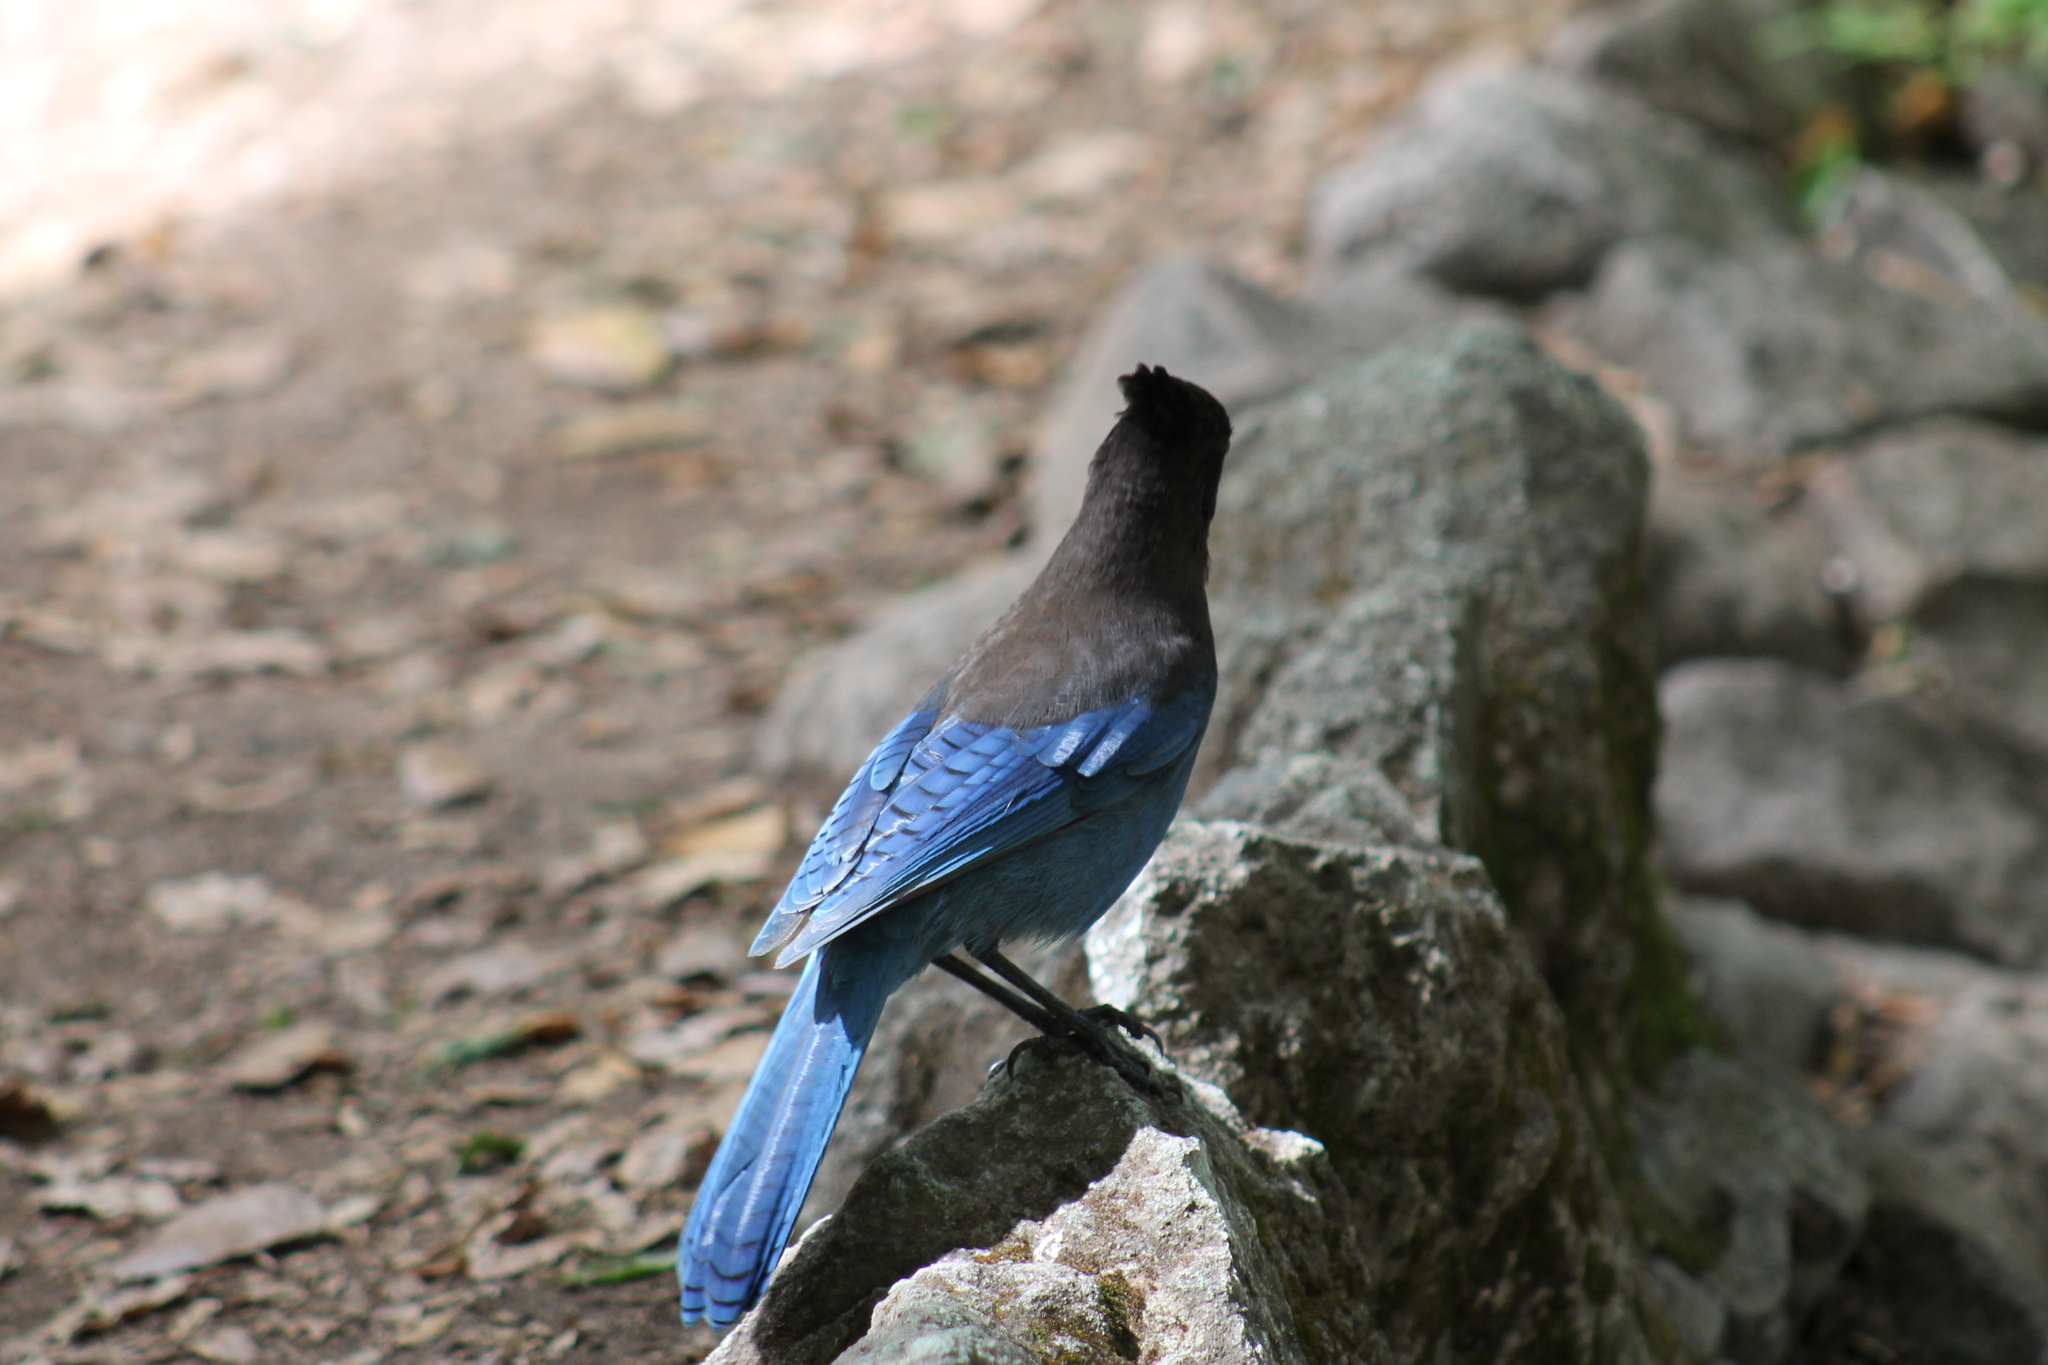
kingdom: Animalia
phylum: Chordata
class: Aves
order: Passeriformes
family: Corvidae
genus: Cyanocitta
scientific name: Cyanocitta stelleri
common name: Steller's jay
